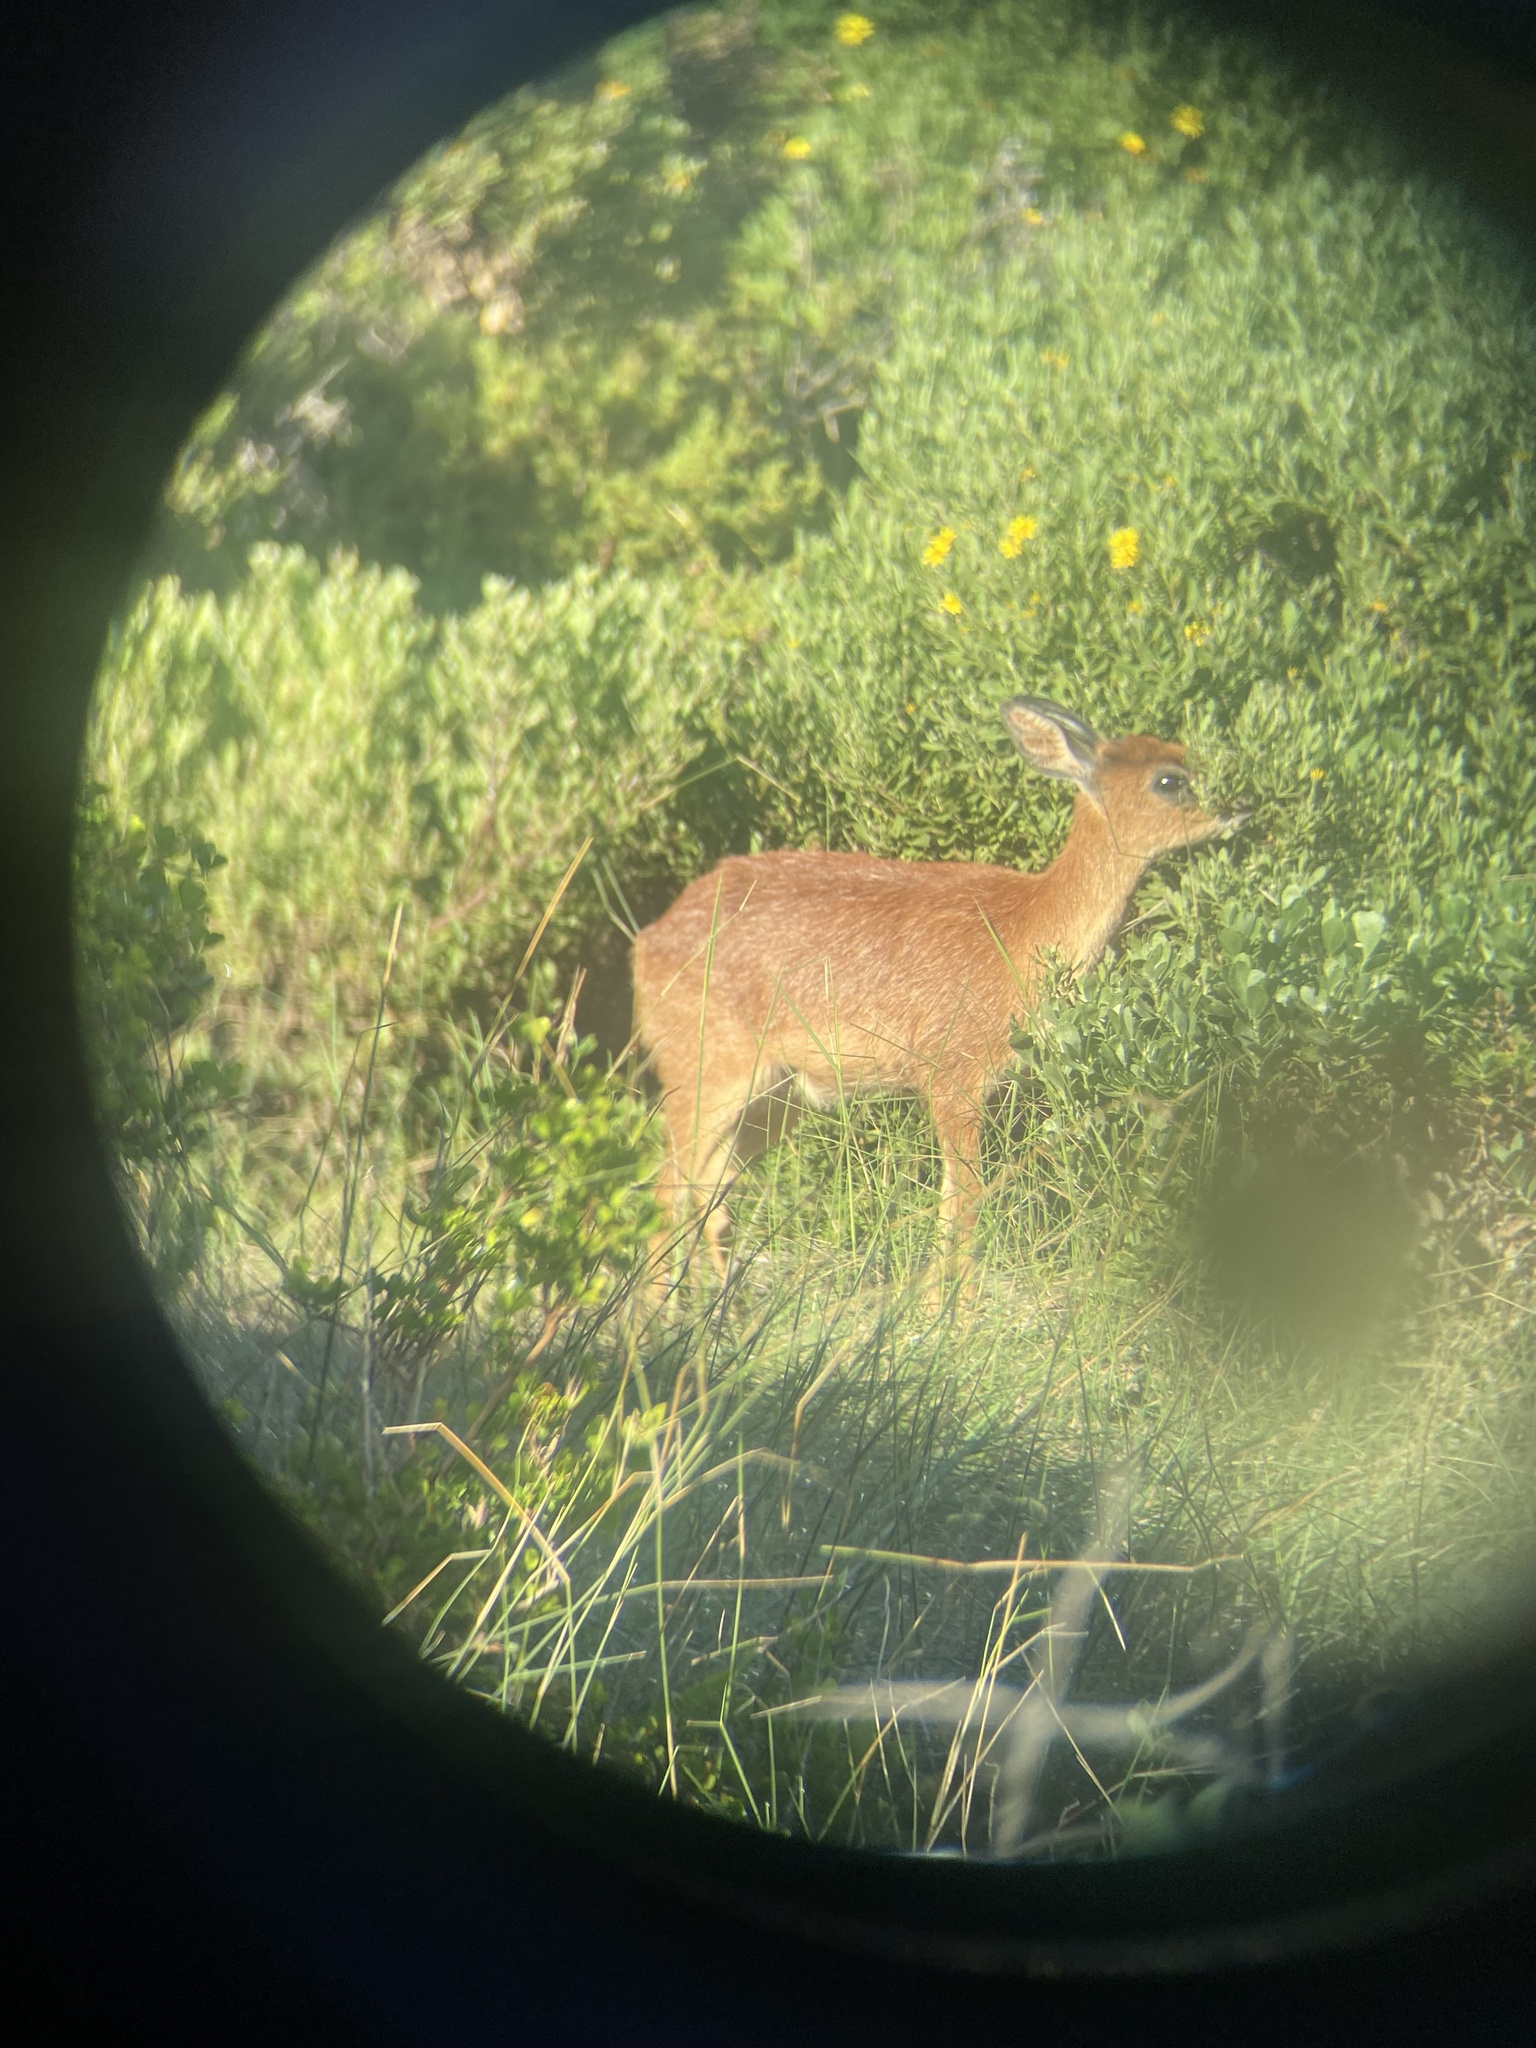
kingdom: Animalia
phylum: Chordata
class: Mammalia
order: Artiodactyla
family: Bovidae
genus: Raphicerus
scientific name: Raphicerus melanotis
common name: Cape grysbok
